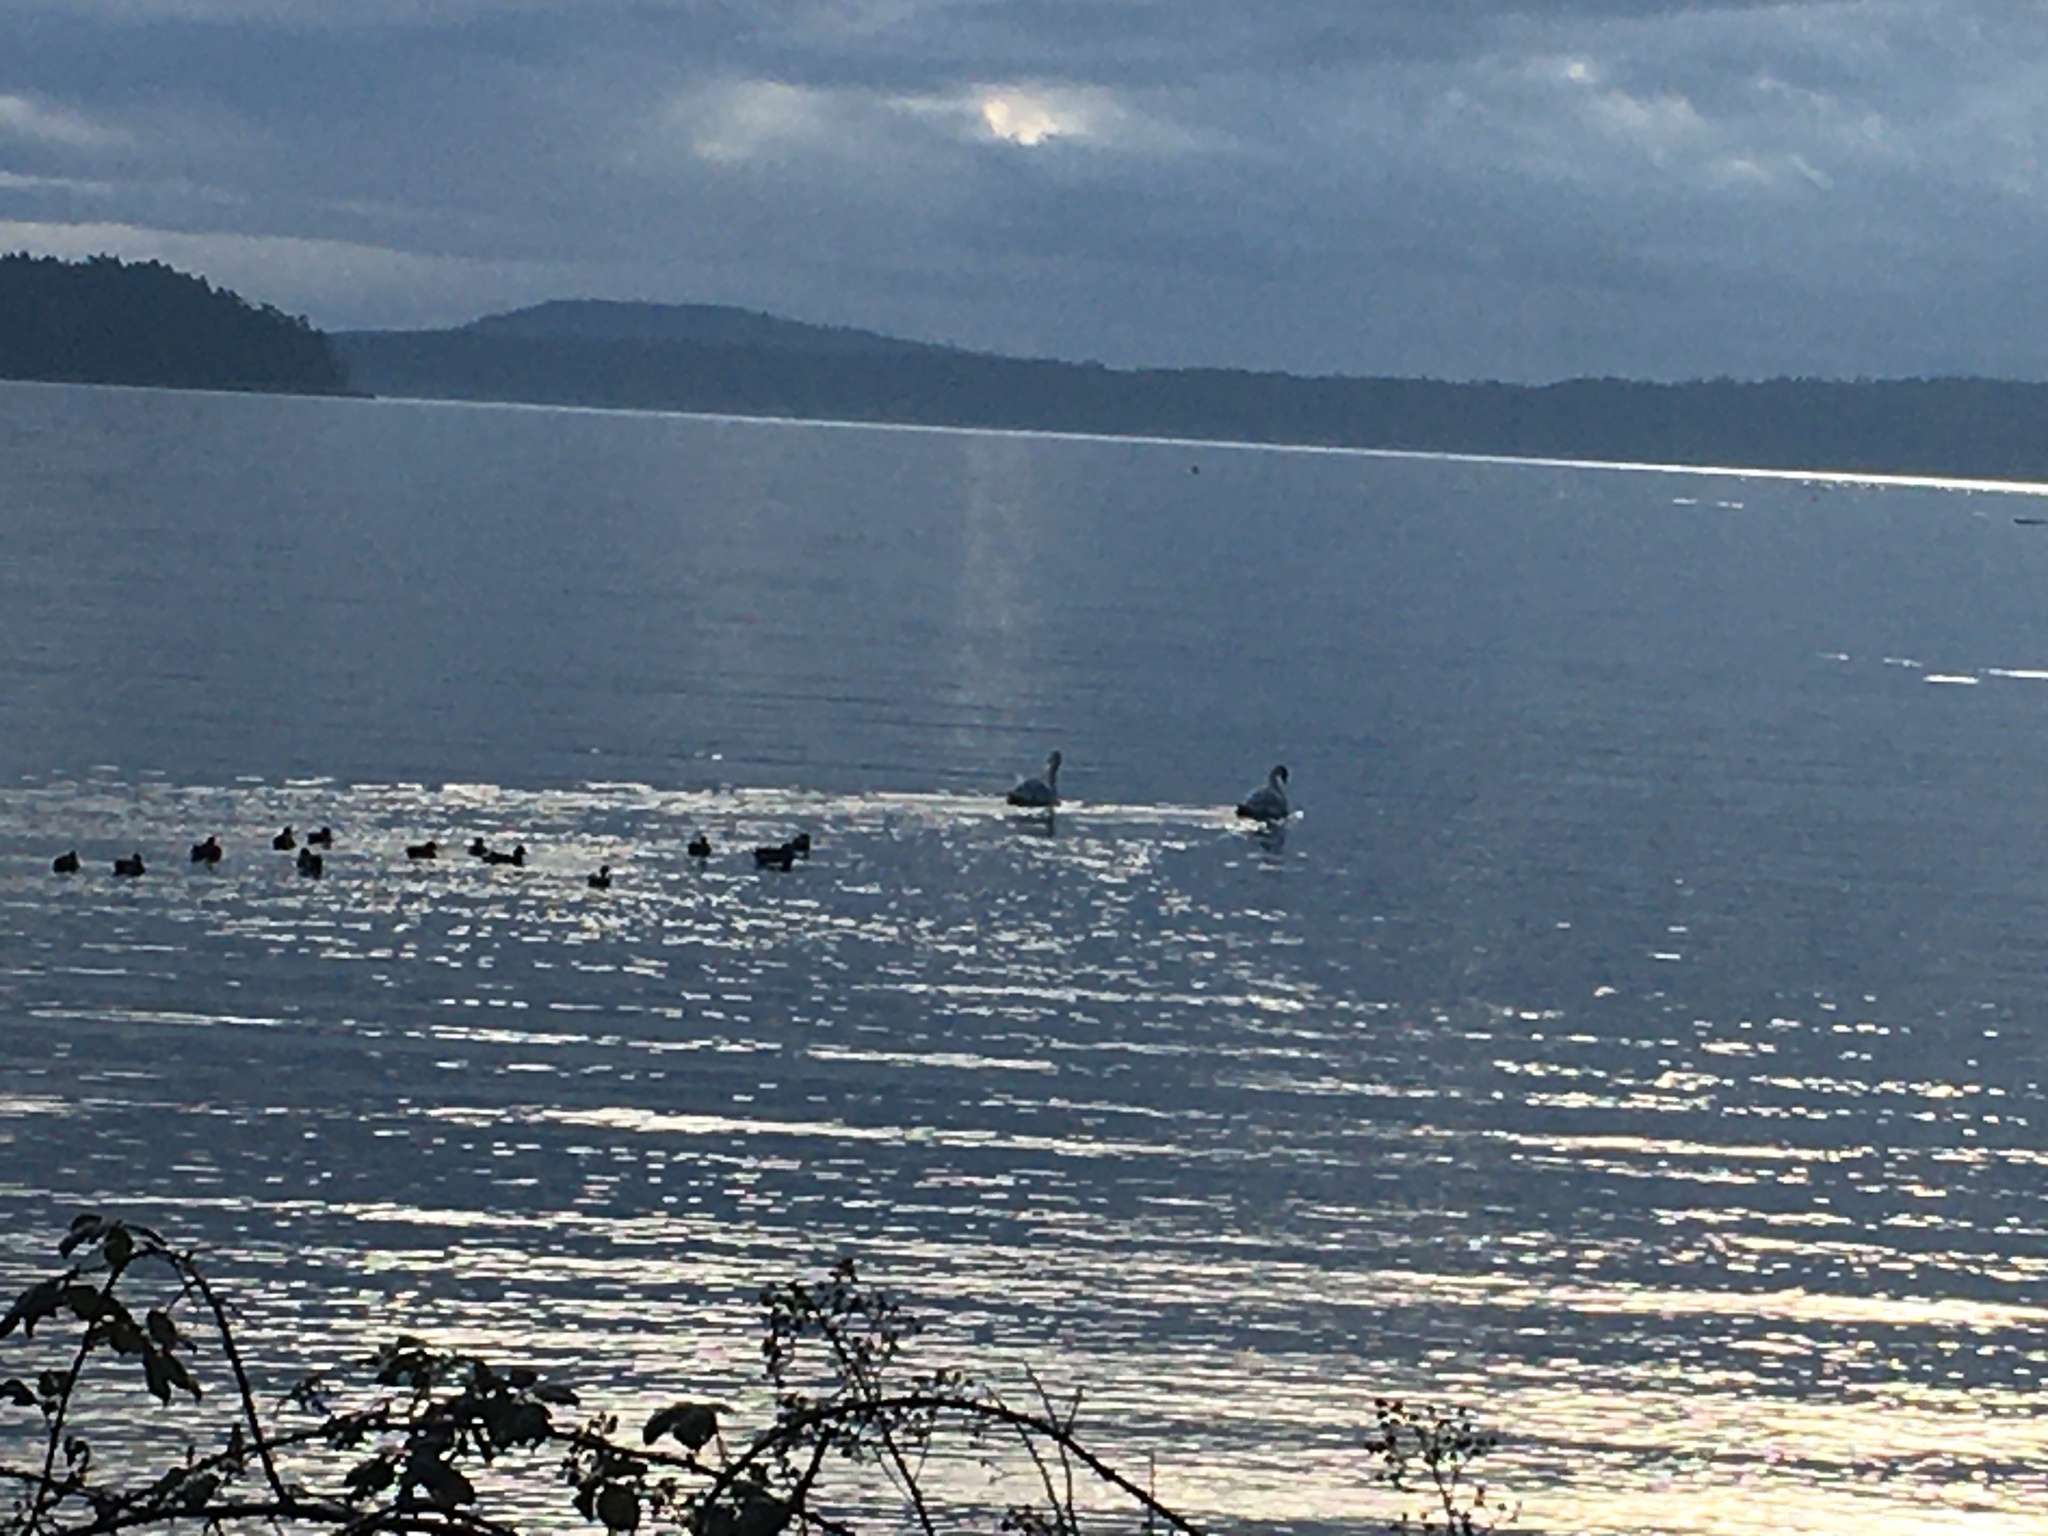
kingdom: Animalia
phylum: Chordata
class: Aves
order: Anseriformes
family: Anatidae
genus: Cygnus
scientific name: Cygnus olor
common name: Mute swan
